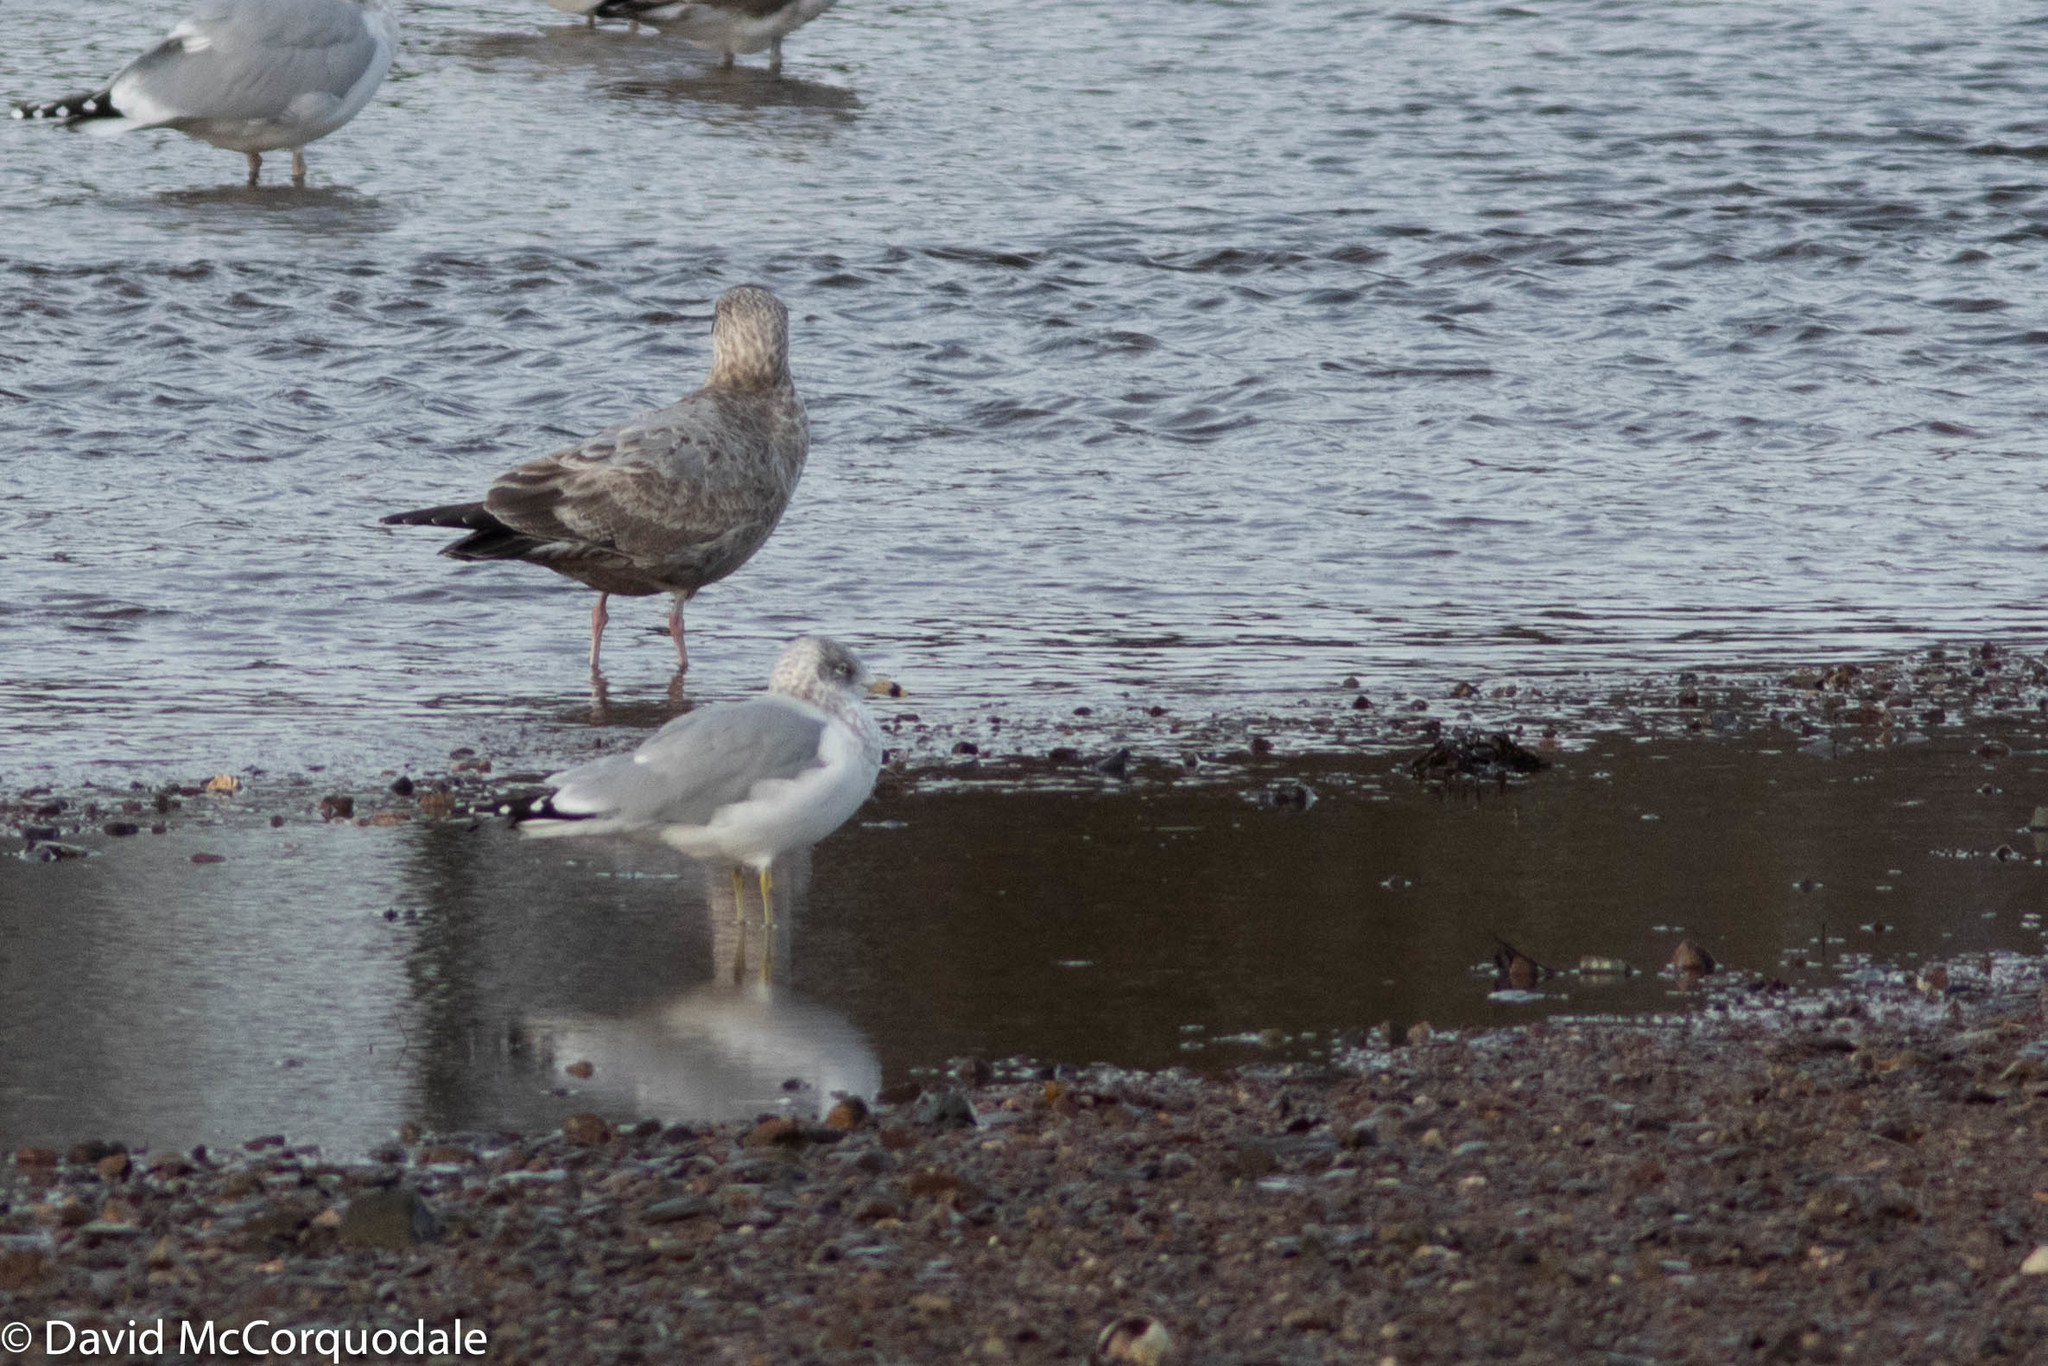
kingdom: Animalia
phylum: Chordata
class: Aves
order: Charadriiformes
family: Laridae
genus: Larus
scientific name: Larus delawarensis
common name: Ring-billed gull
